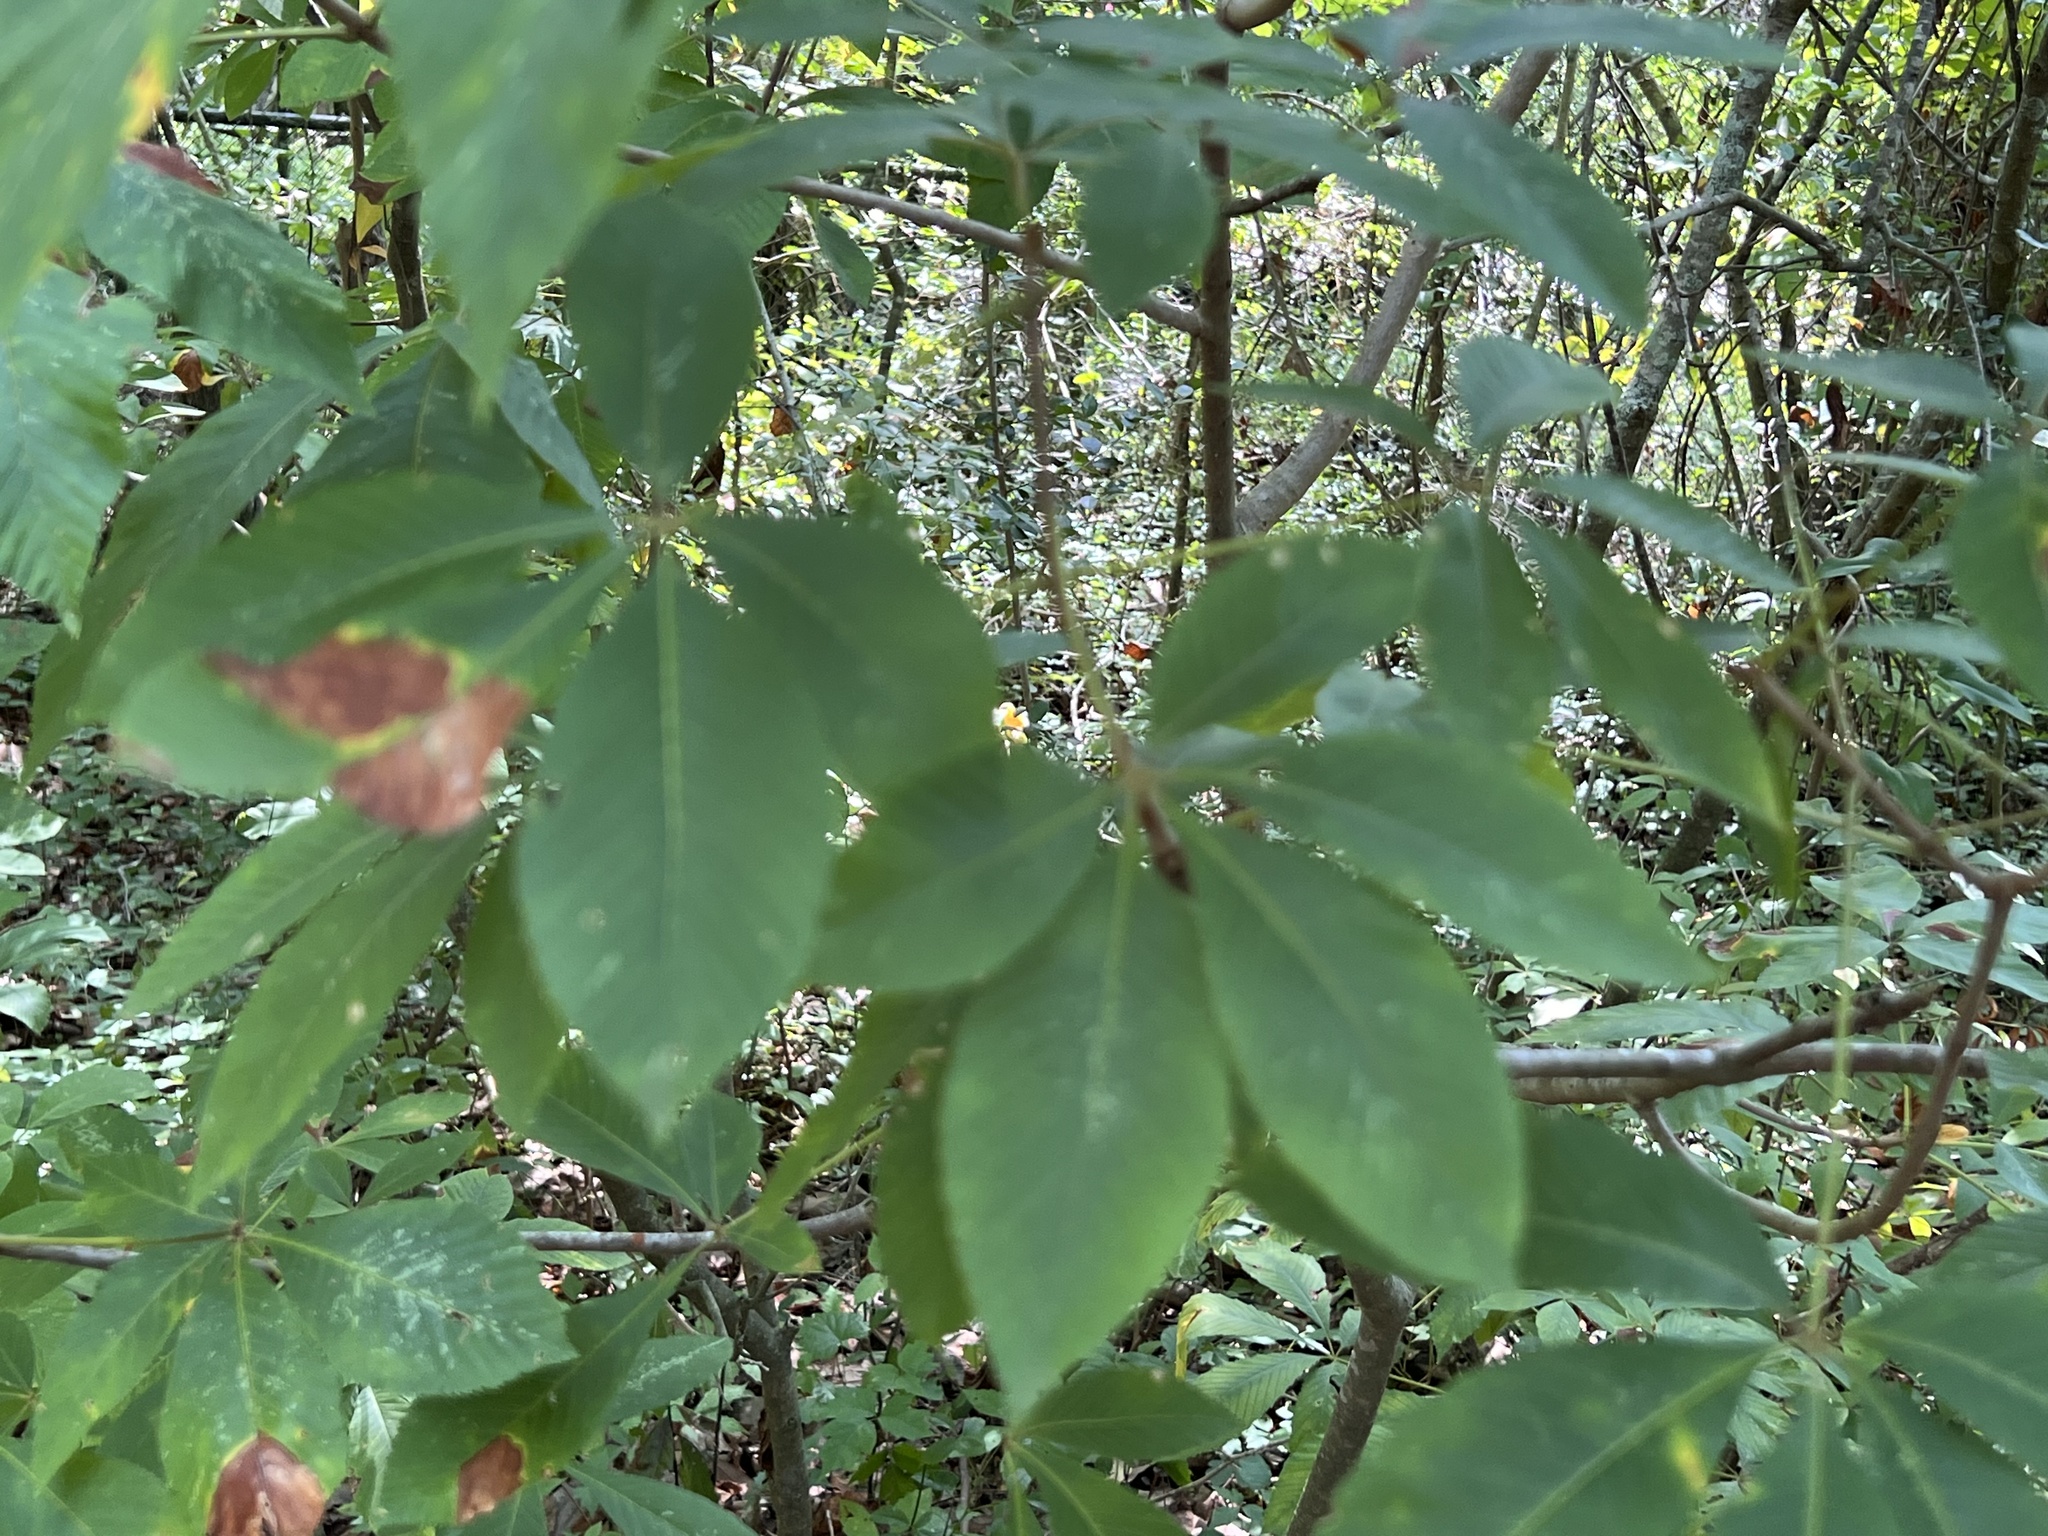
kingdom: Plantae
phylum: Tracheophyta
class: Magnoliopsida
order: Sapindales
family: Sapindaceae
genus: Aesculus
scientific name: Aesculus pavia
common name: Red buckeye
